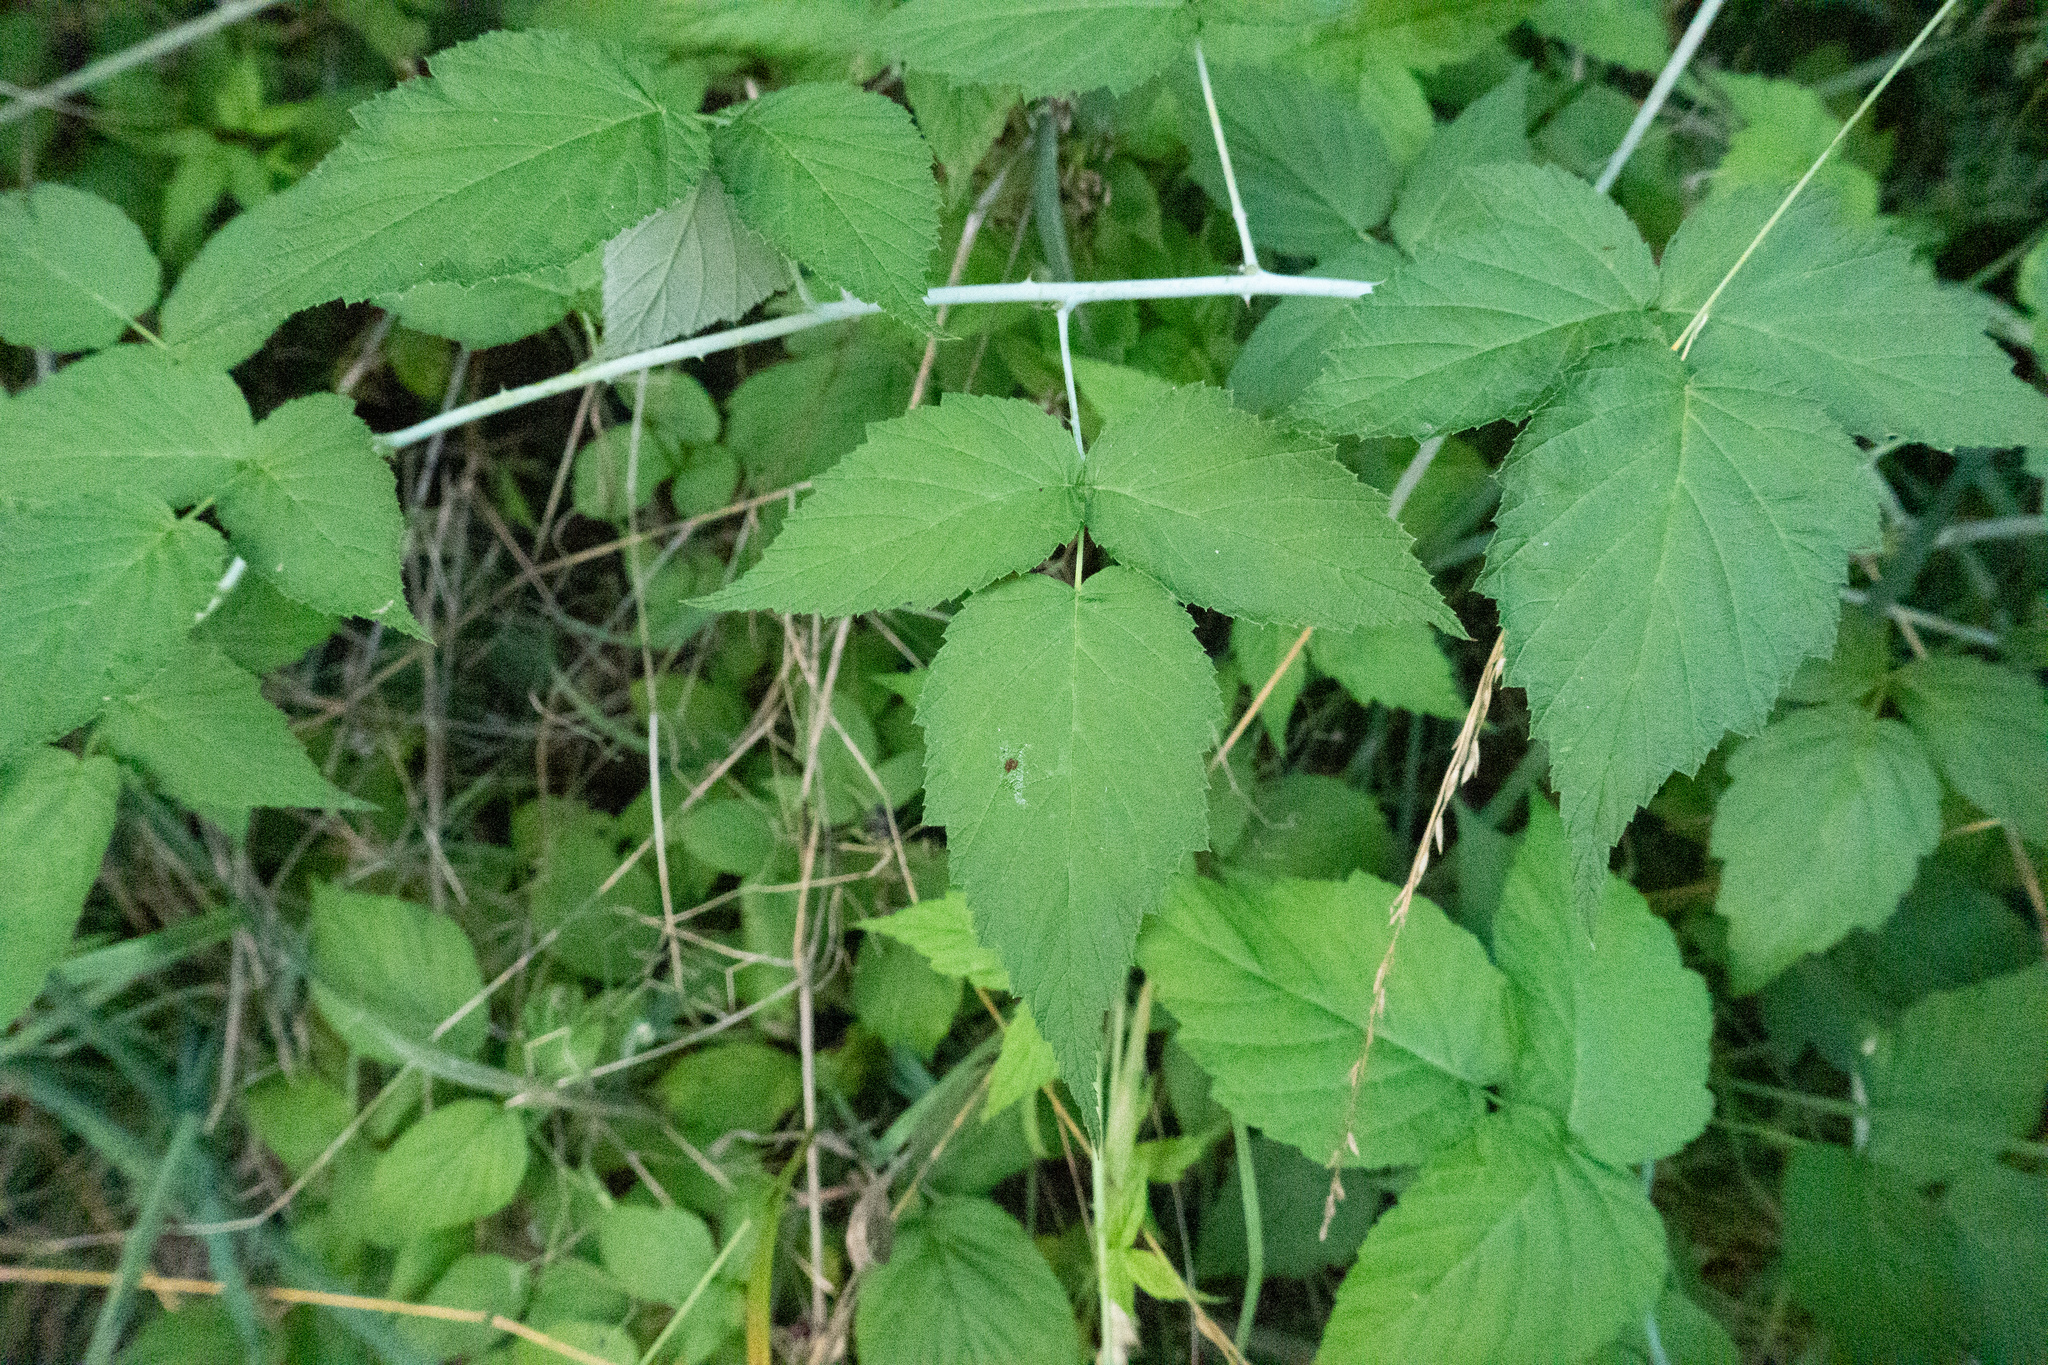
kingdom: Plantae
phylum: Tracheophyta
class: Magnoliopsida
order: Rosales
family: Rosaceae
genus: Rubus
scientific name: Rubus occidentalis
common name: Black raspberry
